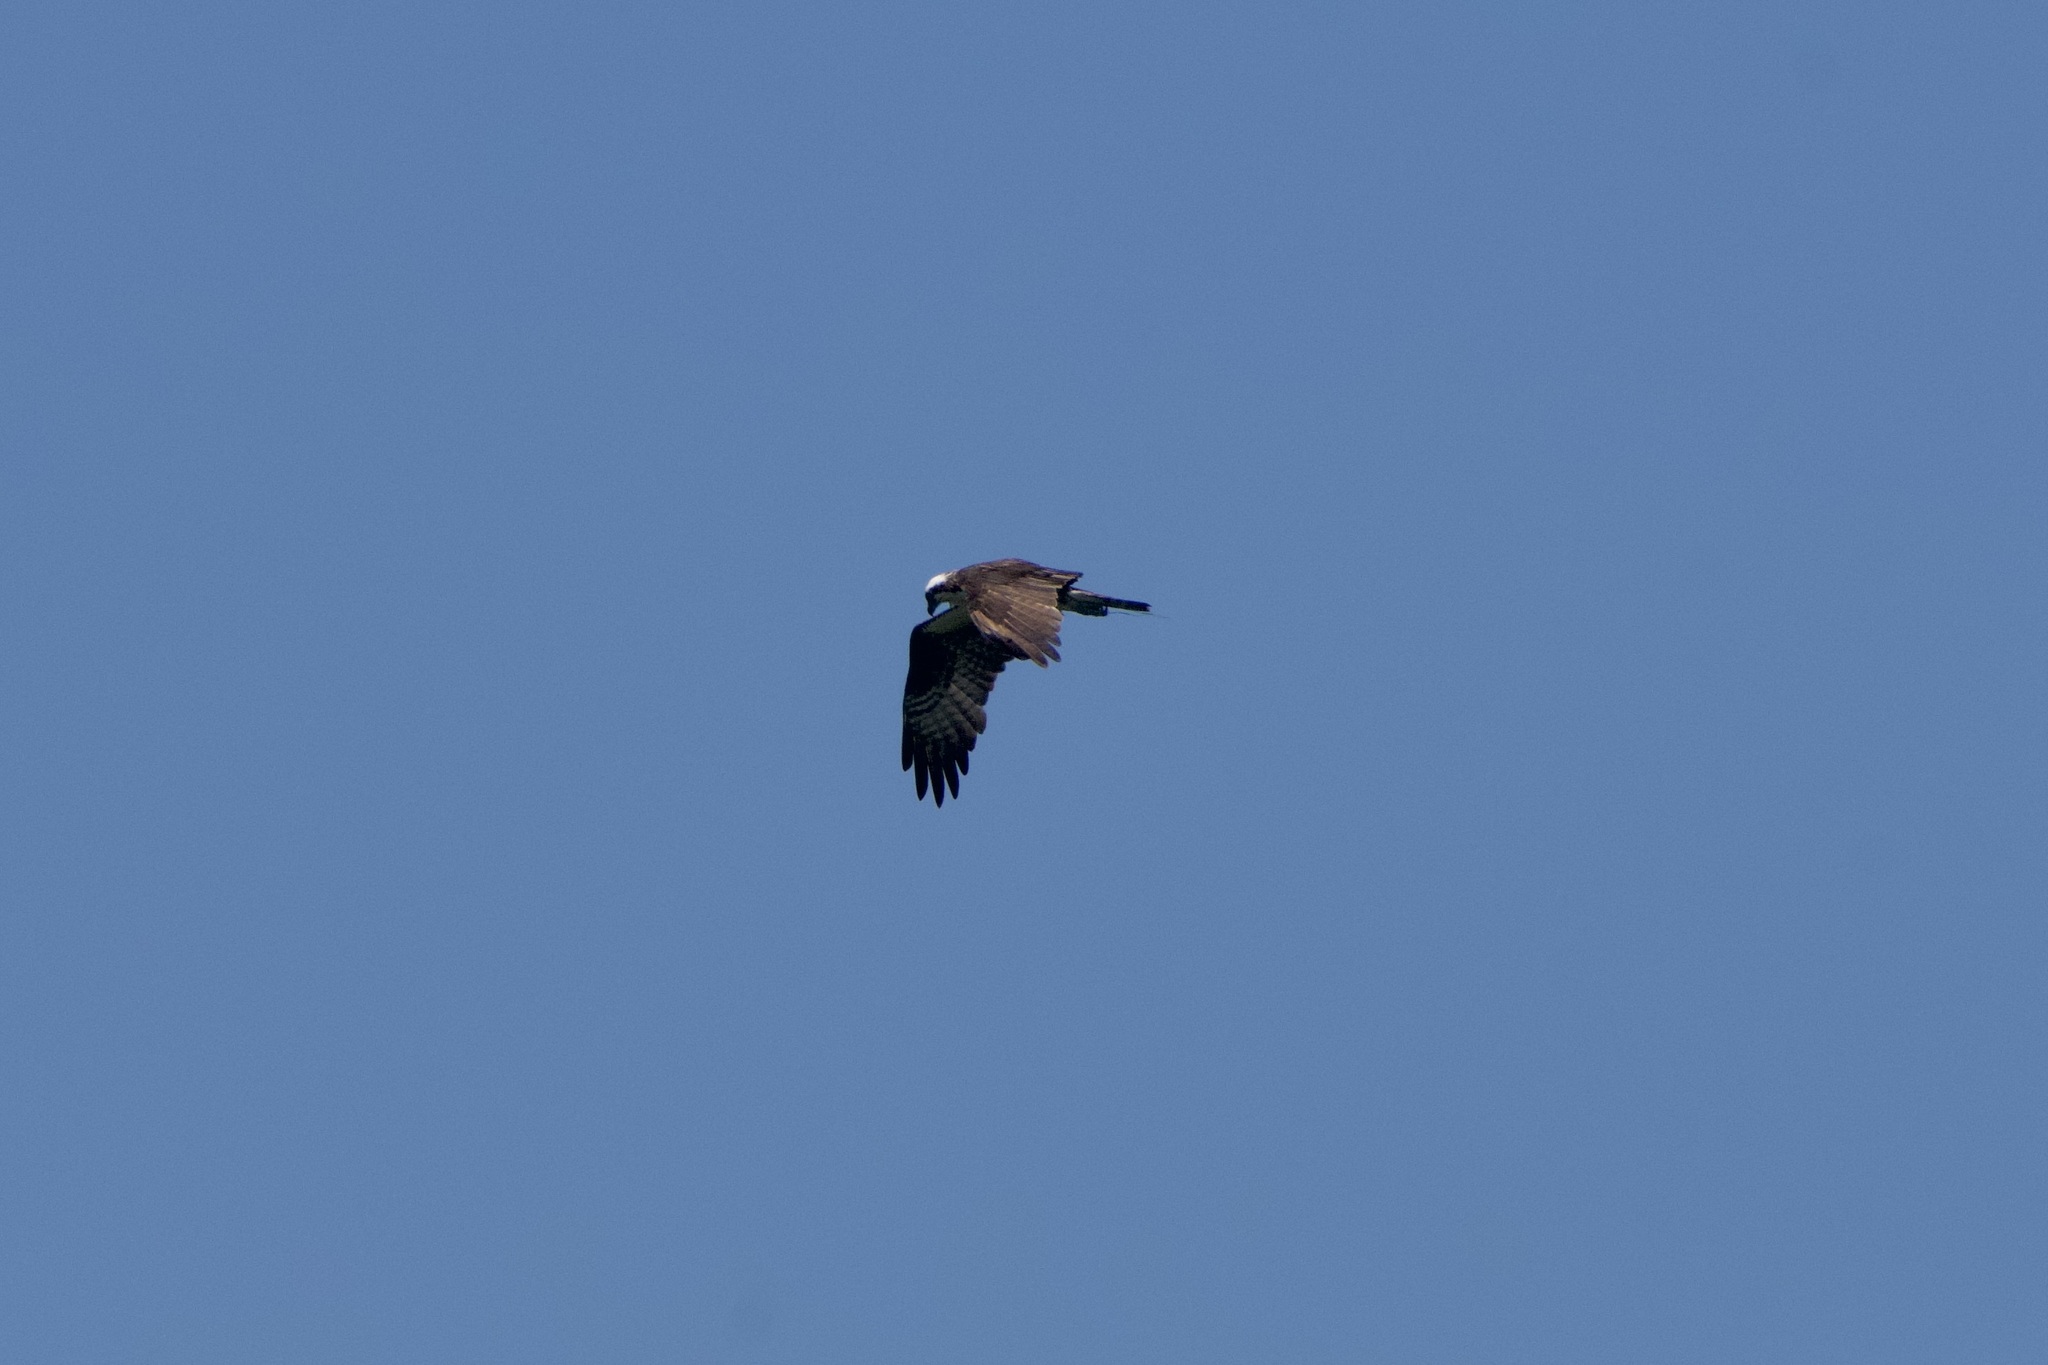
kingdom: Animalia
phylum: Chordata
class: Aves
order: Accipitriformes
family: Pandionidae
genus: Pandion
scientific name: Pandion haliaetus
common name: Osprey
